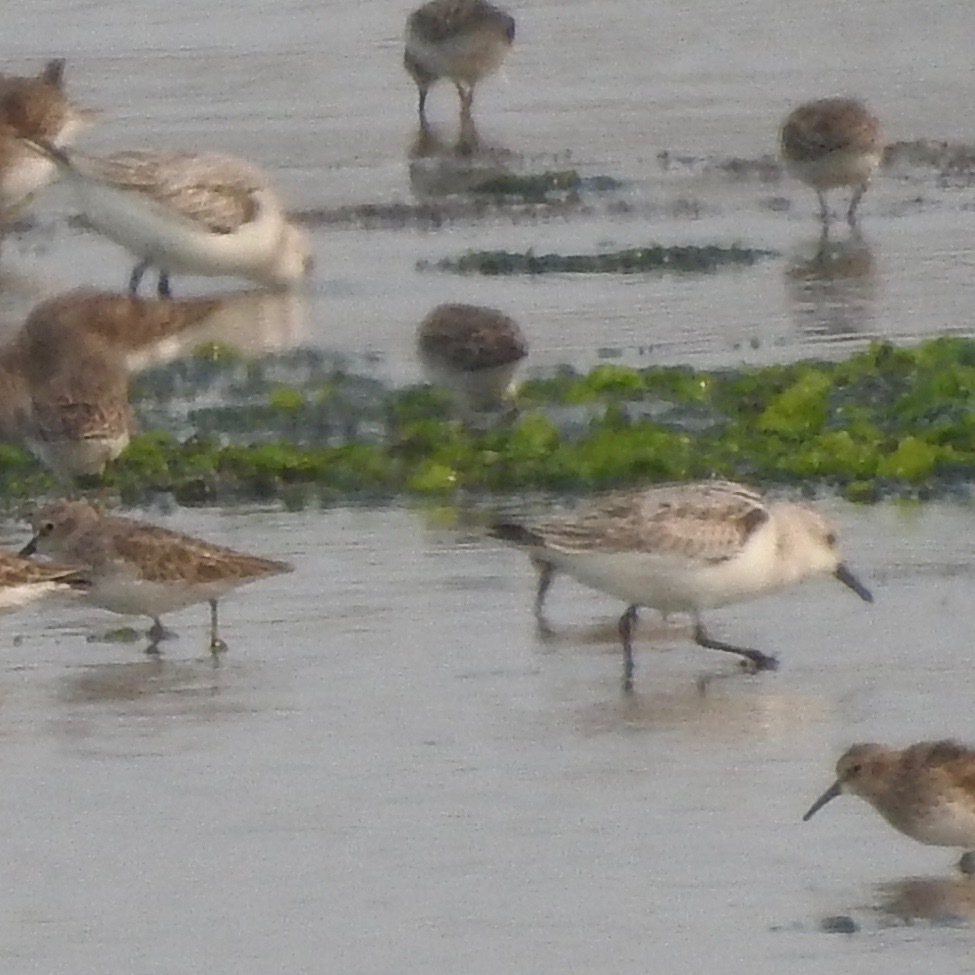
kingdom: Animalia
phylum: Chordata
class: Aves
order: Charadriiformes
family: Scolopacidae
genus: Calidris
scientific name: Calidris alba
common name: Sanderling
